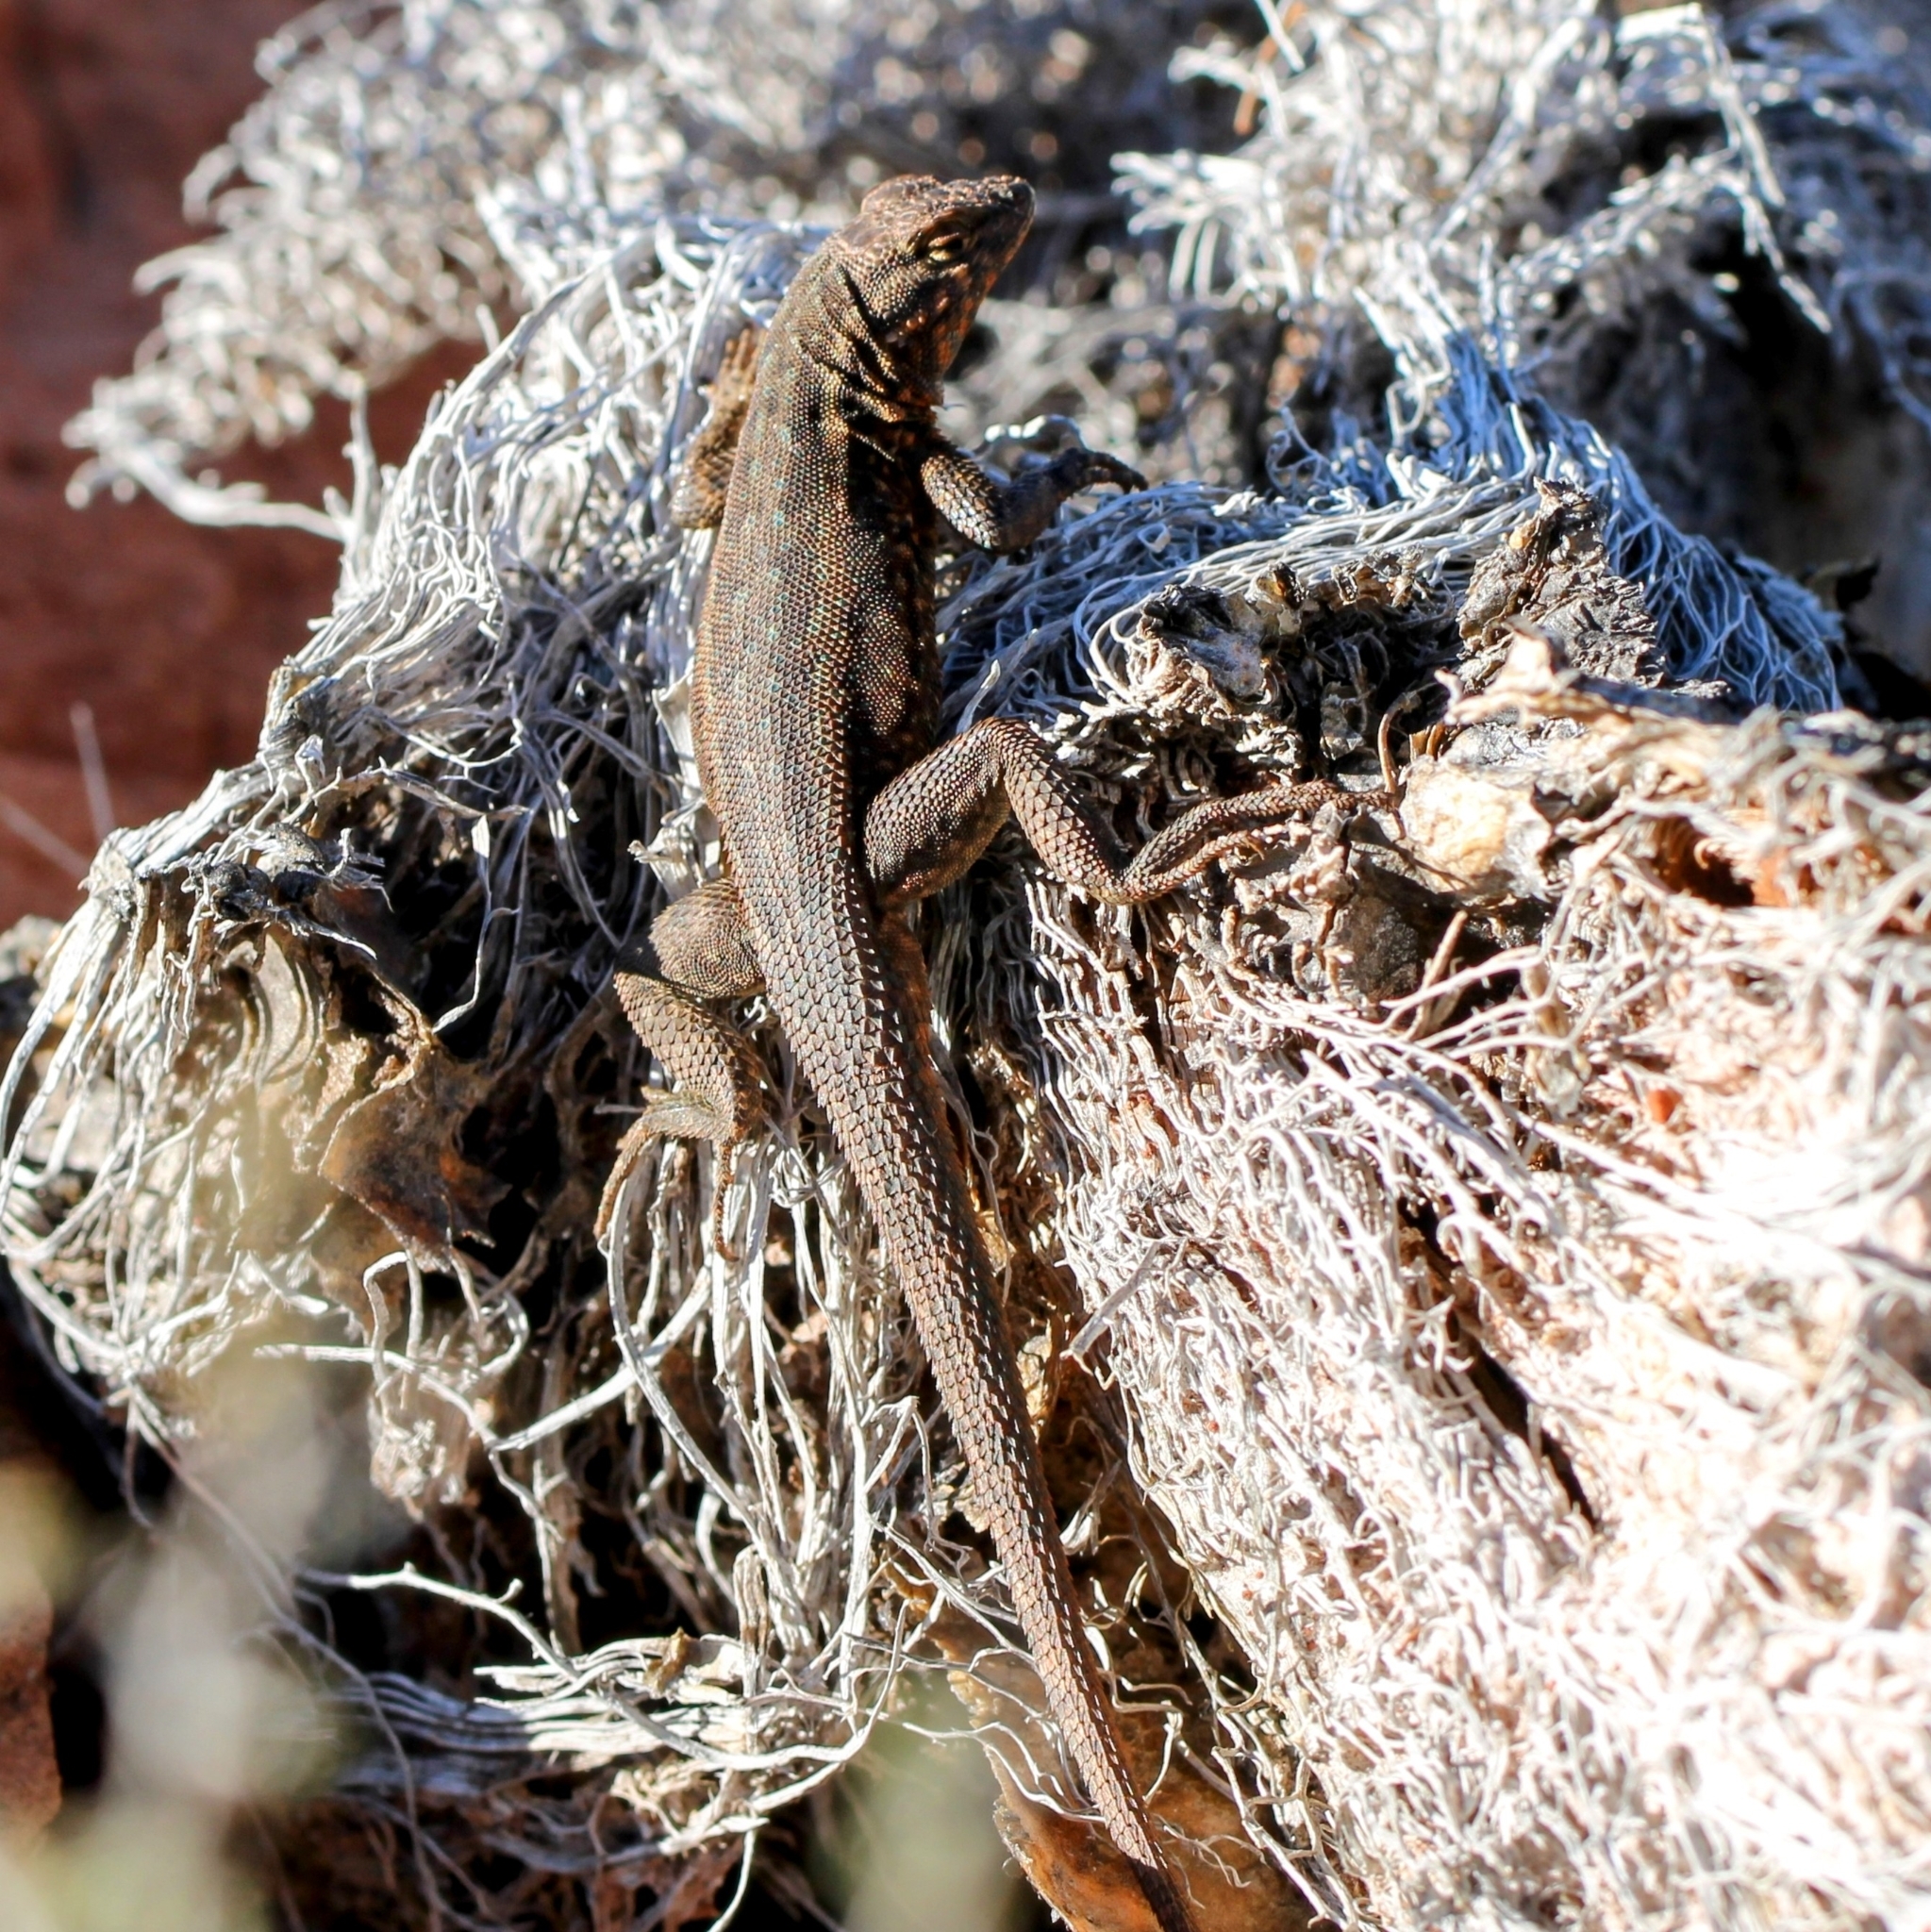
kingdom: Animalia
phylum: Chordata
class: Squamata
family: Phrynosomatidae
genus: Uta
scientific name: Uta stansburiana
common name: Side-blotched lizard
